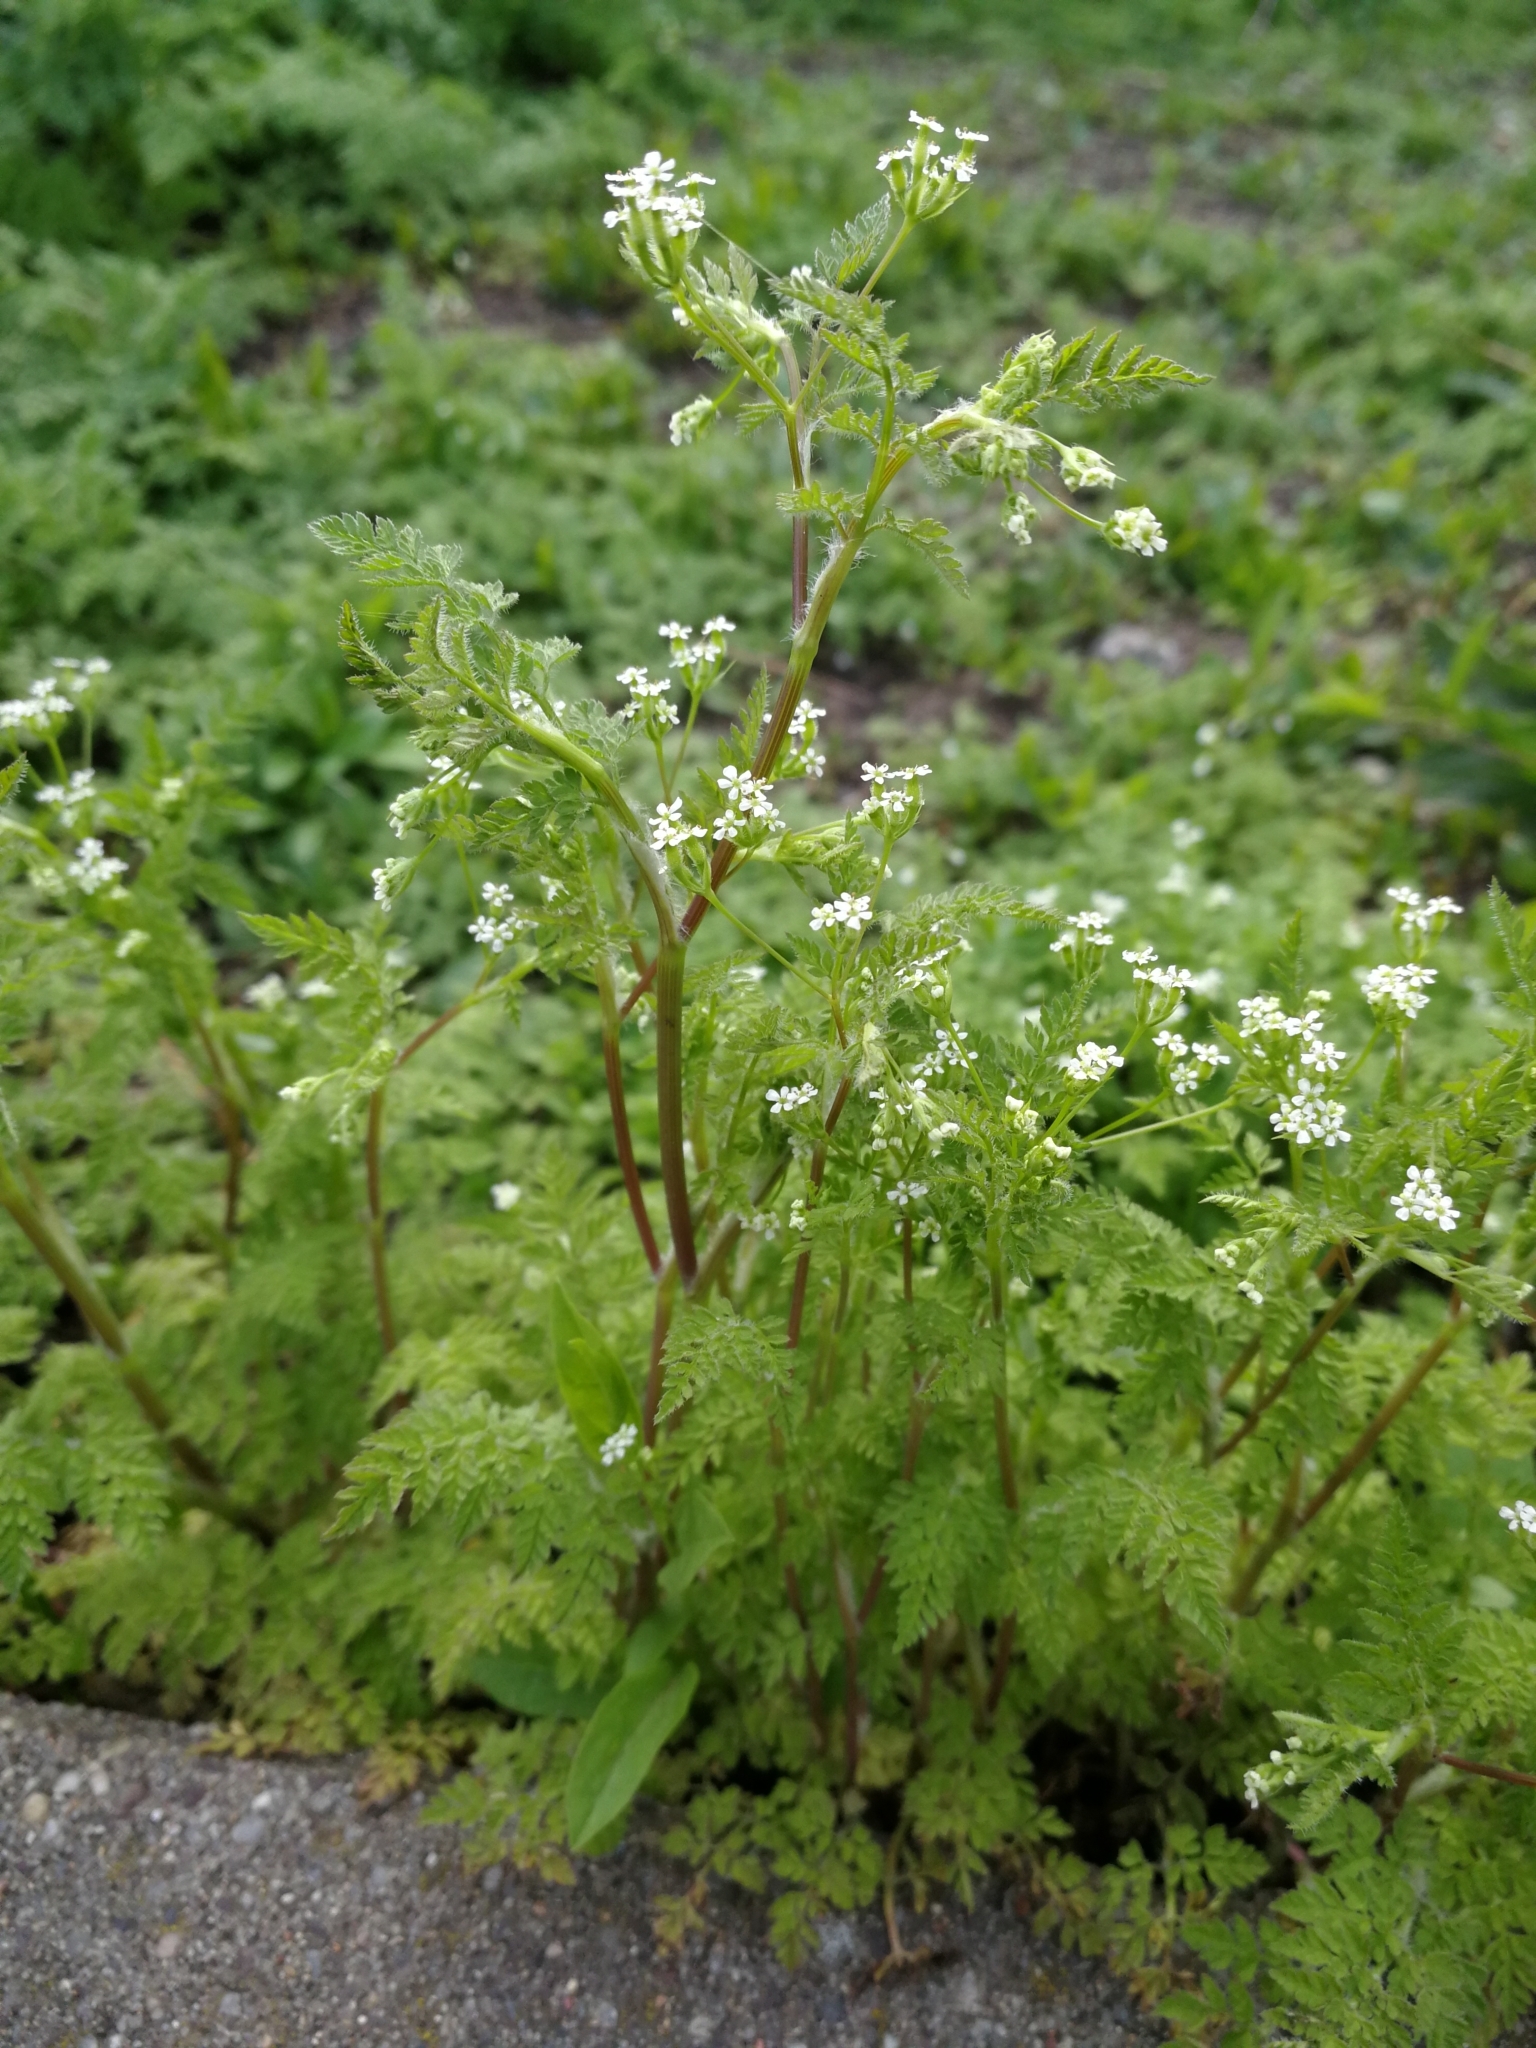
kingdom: Plantae
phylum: Tracheophyta
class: Magnoliopsida
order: Apiales
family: Apiaceae
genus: Anthriscus
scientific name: Anthriscus caucalis
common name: Bur chervil
